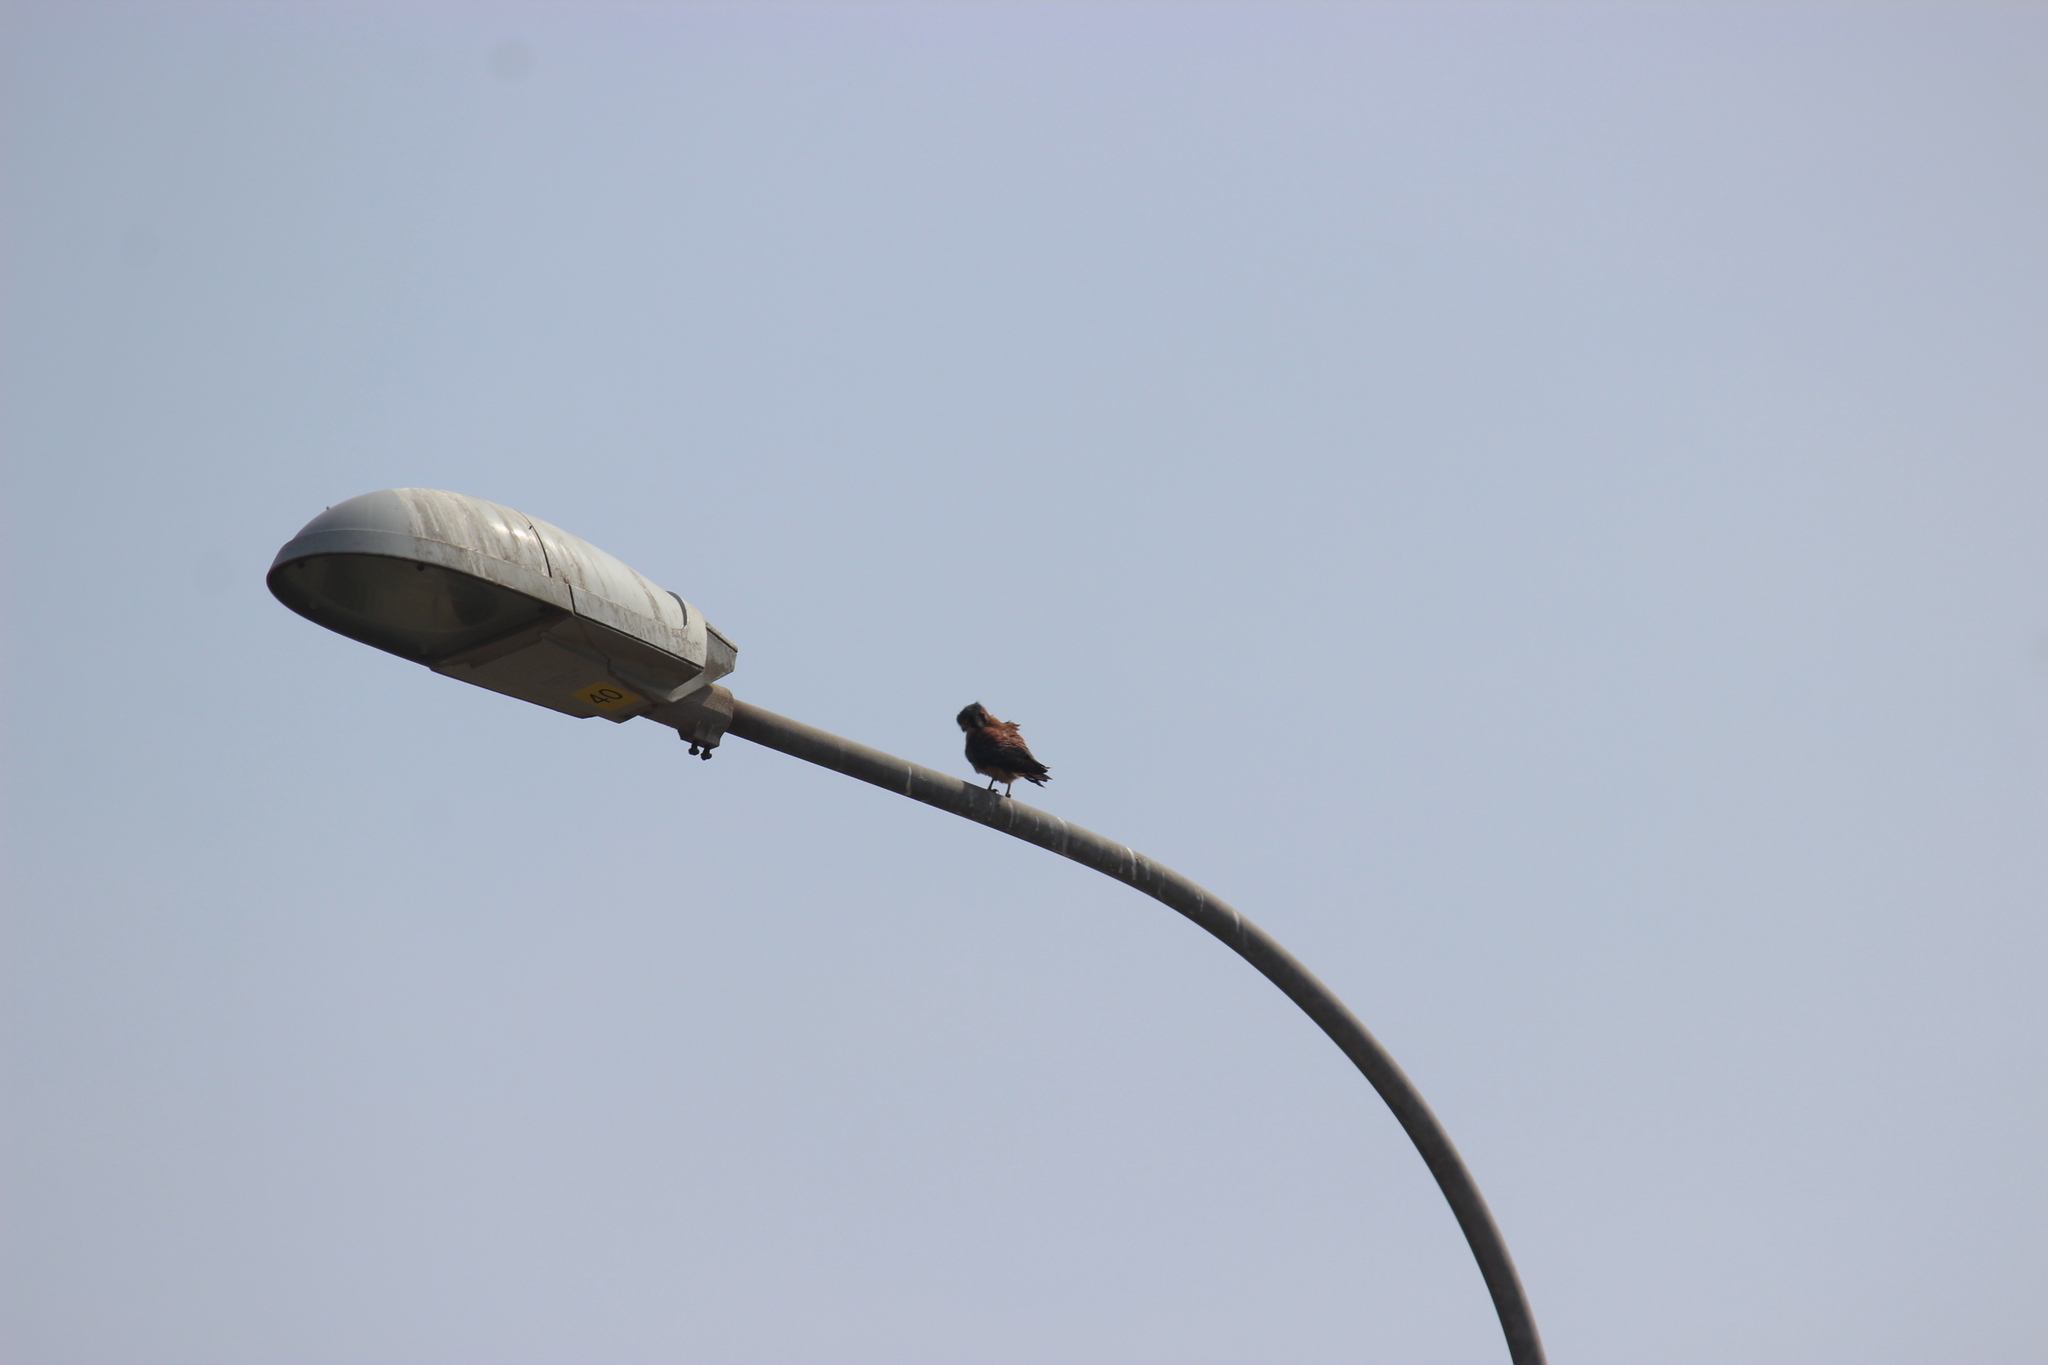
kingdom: Animalia
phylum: Chordata
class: Aves
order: Falconiformes
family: Falconidae
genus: Falco
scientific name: Falco sparverius
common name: American kestrel
